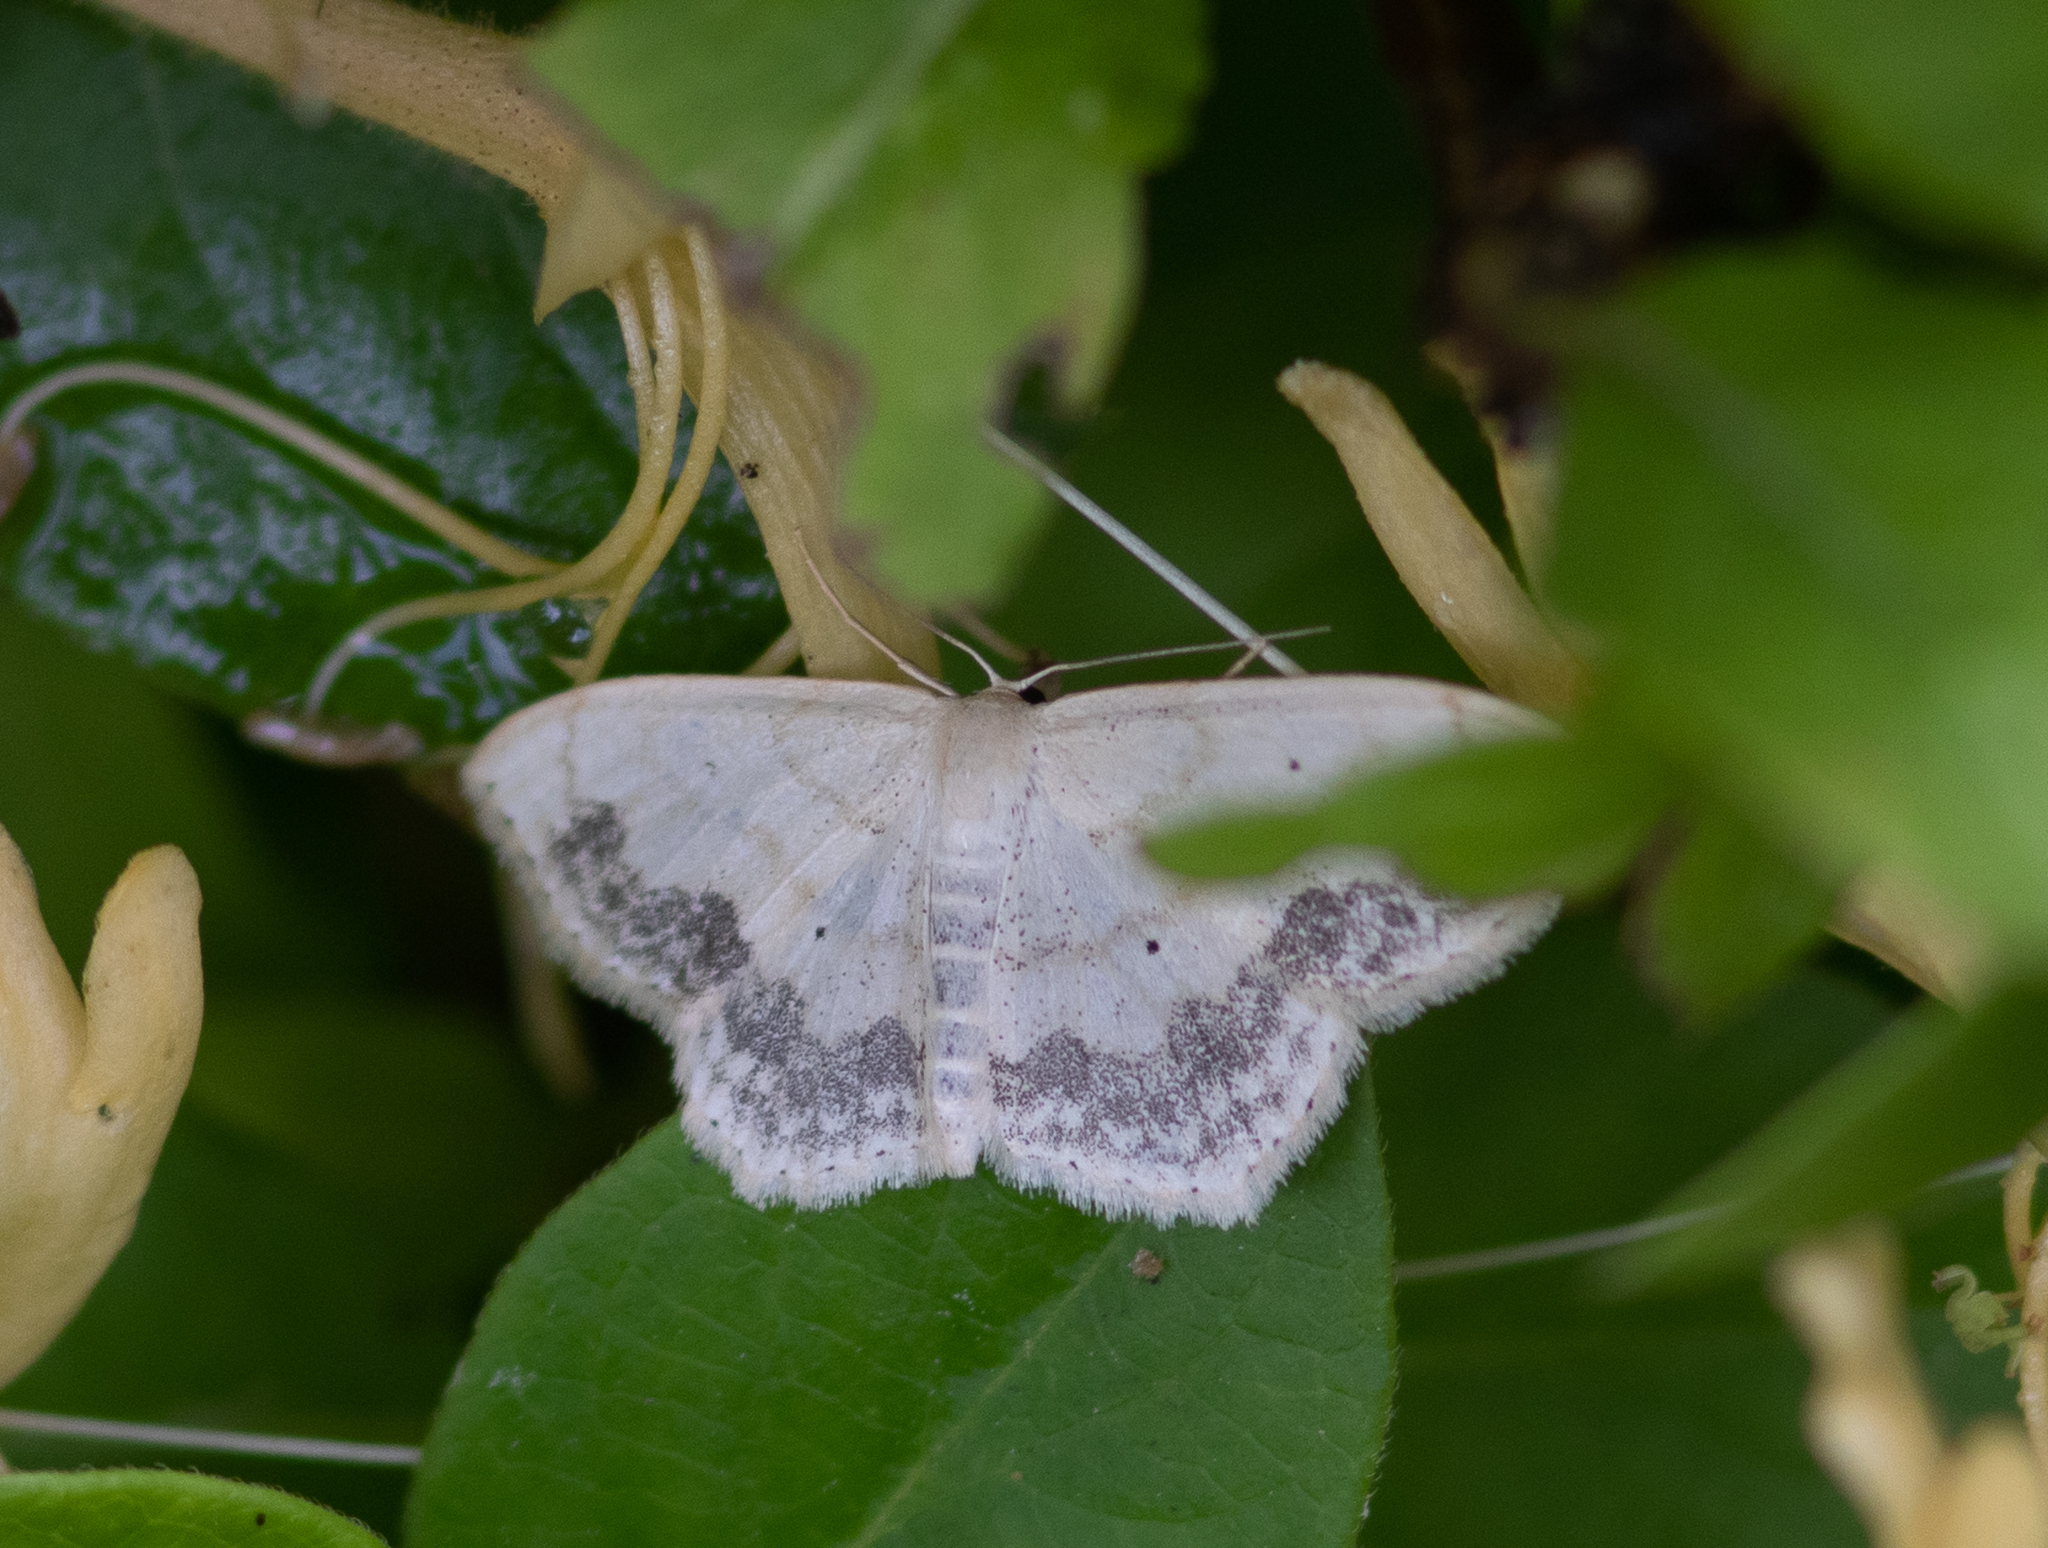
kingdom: Animalia
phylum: Arthropoda
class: Insecta
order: Lepidoptera
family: Geometridae
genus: Scopula
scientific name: Scopula limboundata
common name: Large lace border
